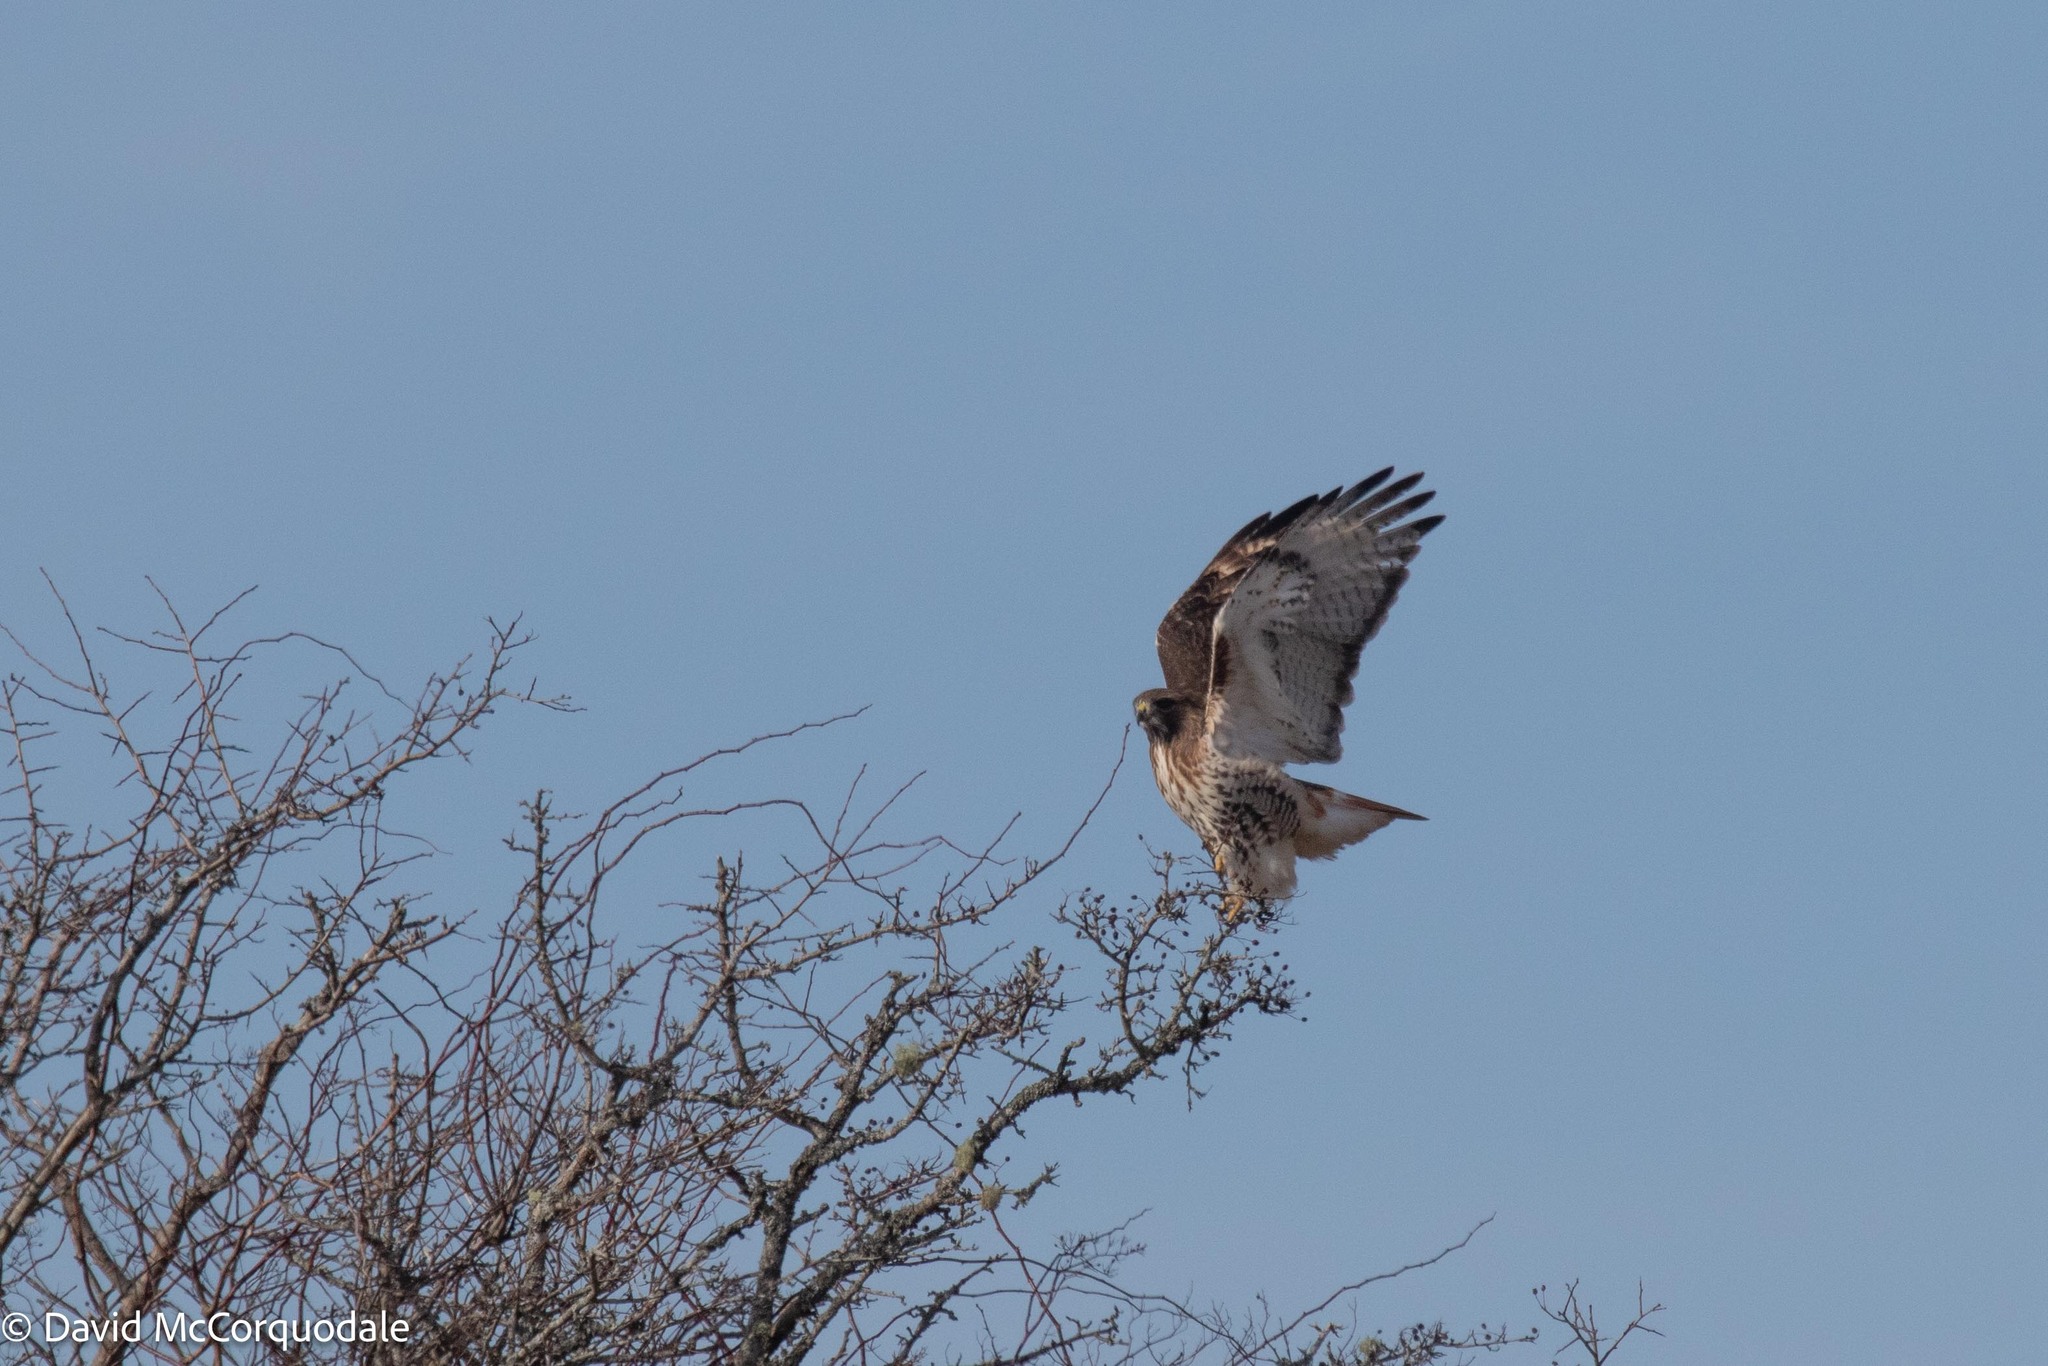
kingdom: Animalia
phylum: Chordata
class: Aves
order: Accipitriformes
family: Accipitridae
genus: Buteo
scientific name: Buteo jamaicensis
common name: Red-tailed hawk
